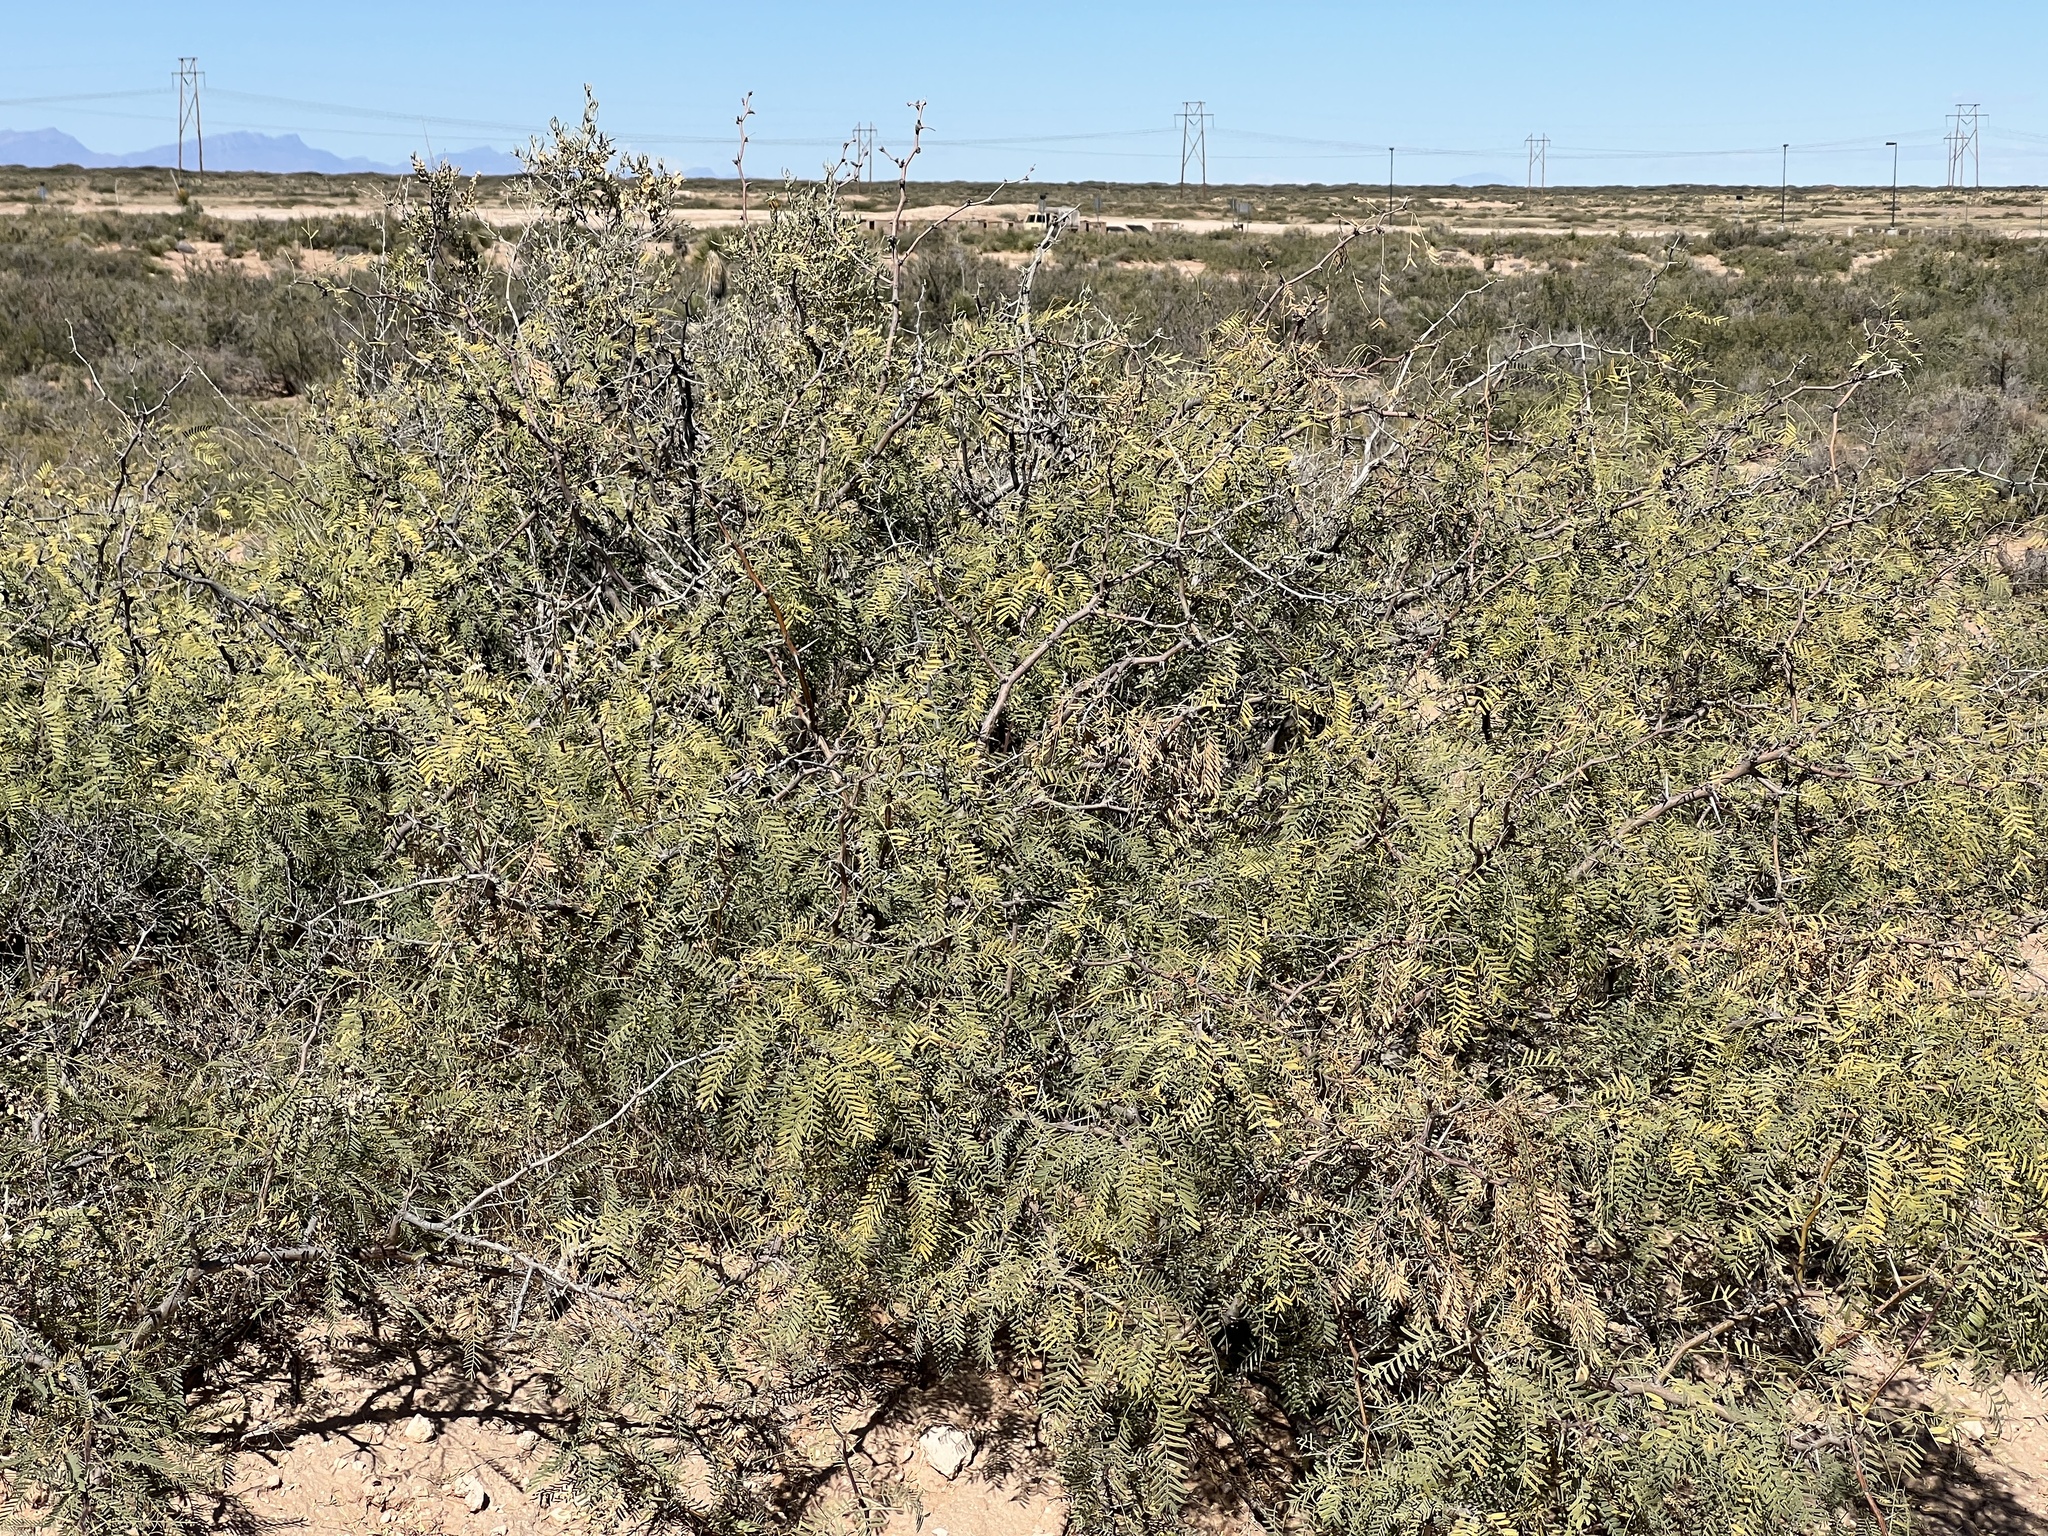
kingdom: Plantae
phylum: Tracheophyta
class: Magnoliopsida
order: Fabales
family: Fabaceae
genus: Prosopis
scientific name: Prosopis pubescens
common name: Screw-bean
